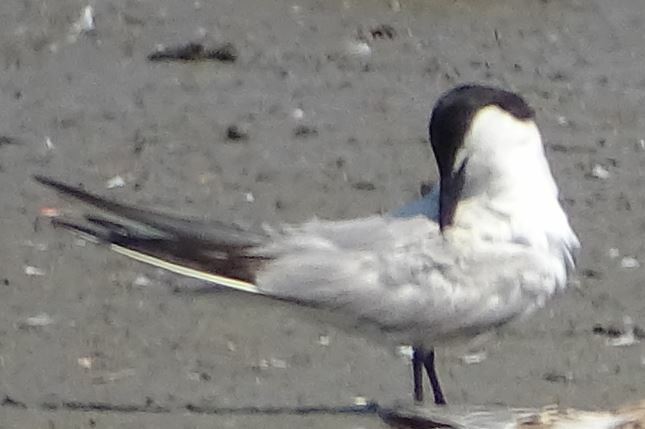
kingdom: Animalia
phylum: Chordata
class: Aves
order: Charadriiformes
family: Laridae
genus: Gelochelidon
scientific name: Gelochelidon nilotica
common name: Gull-billed tern
